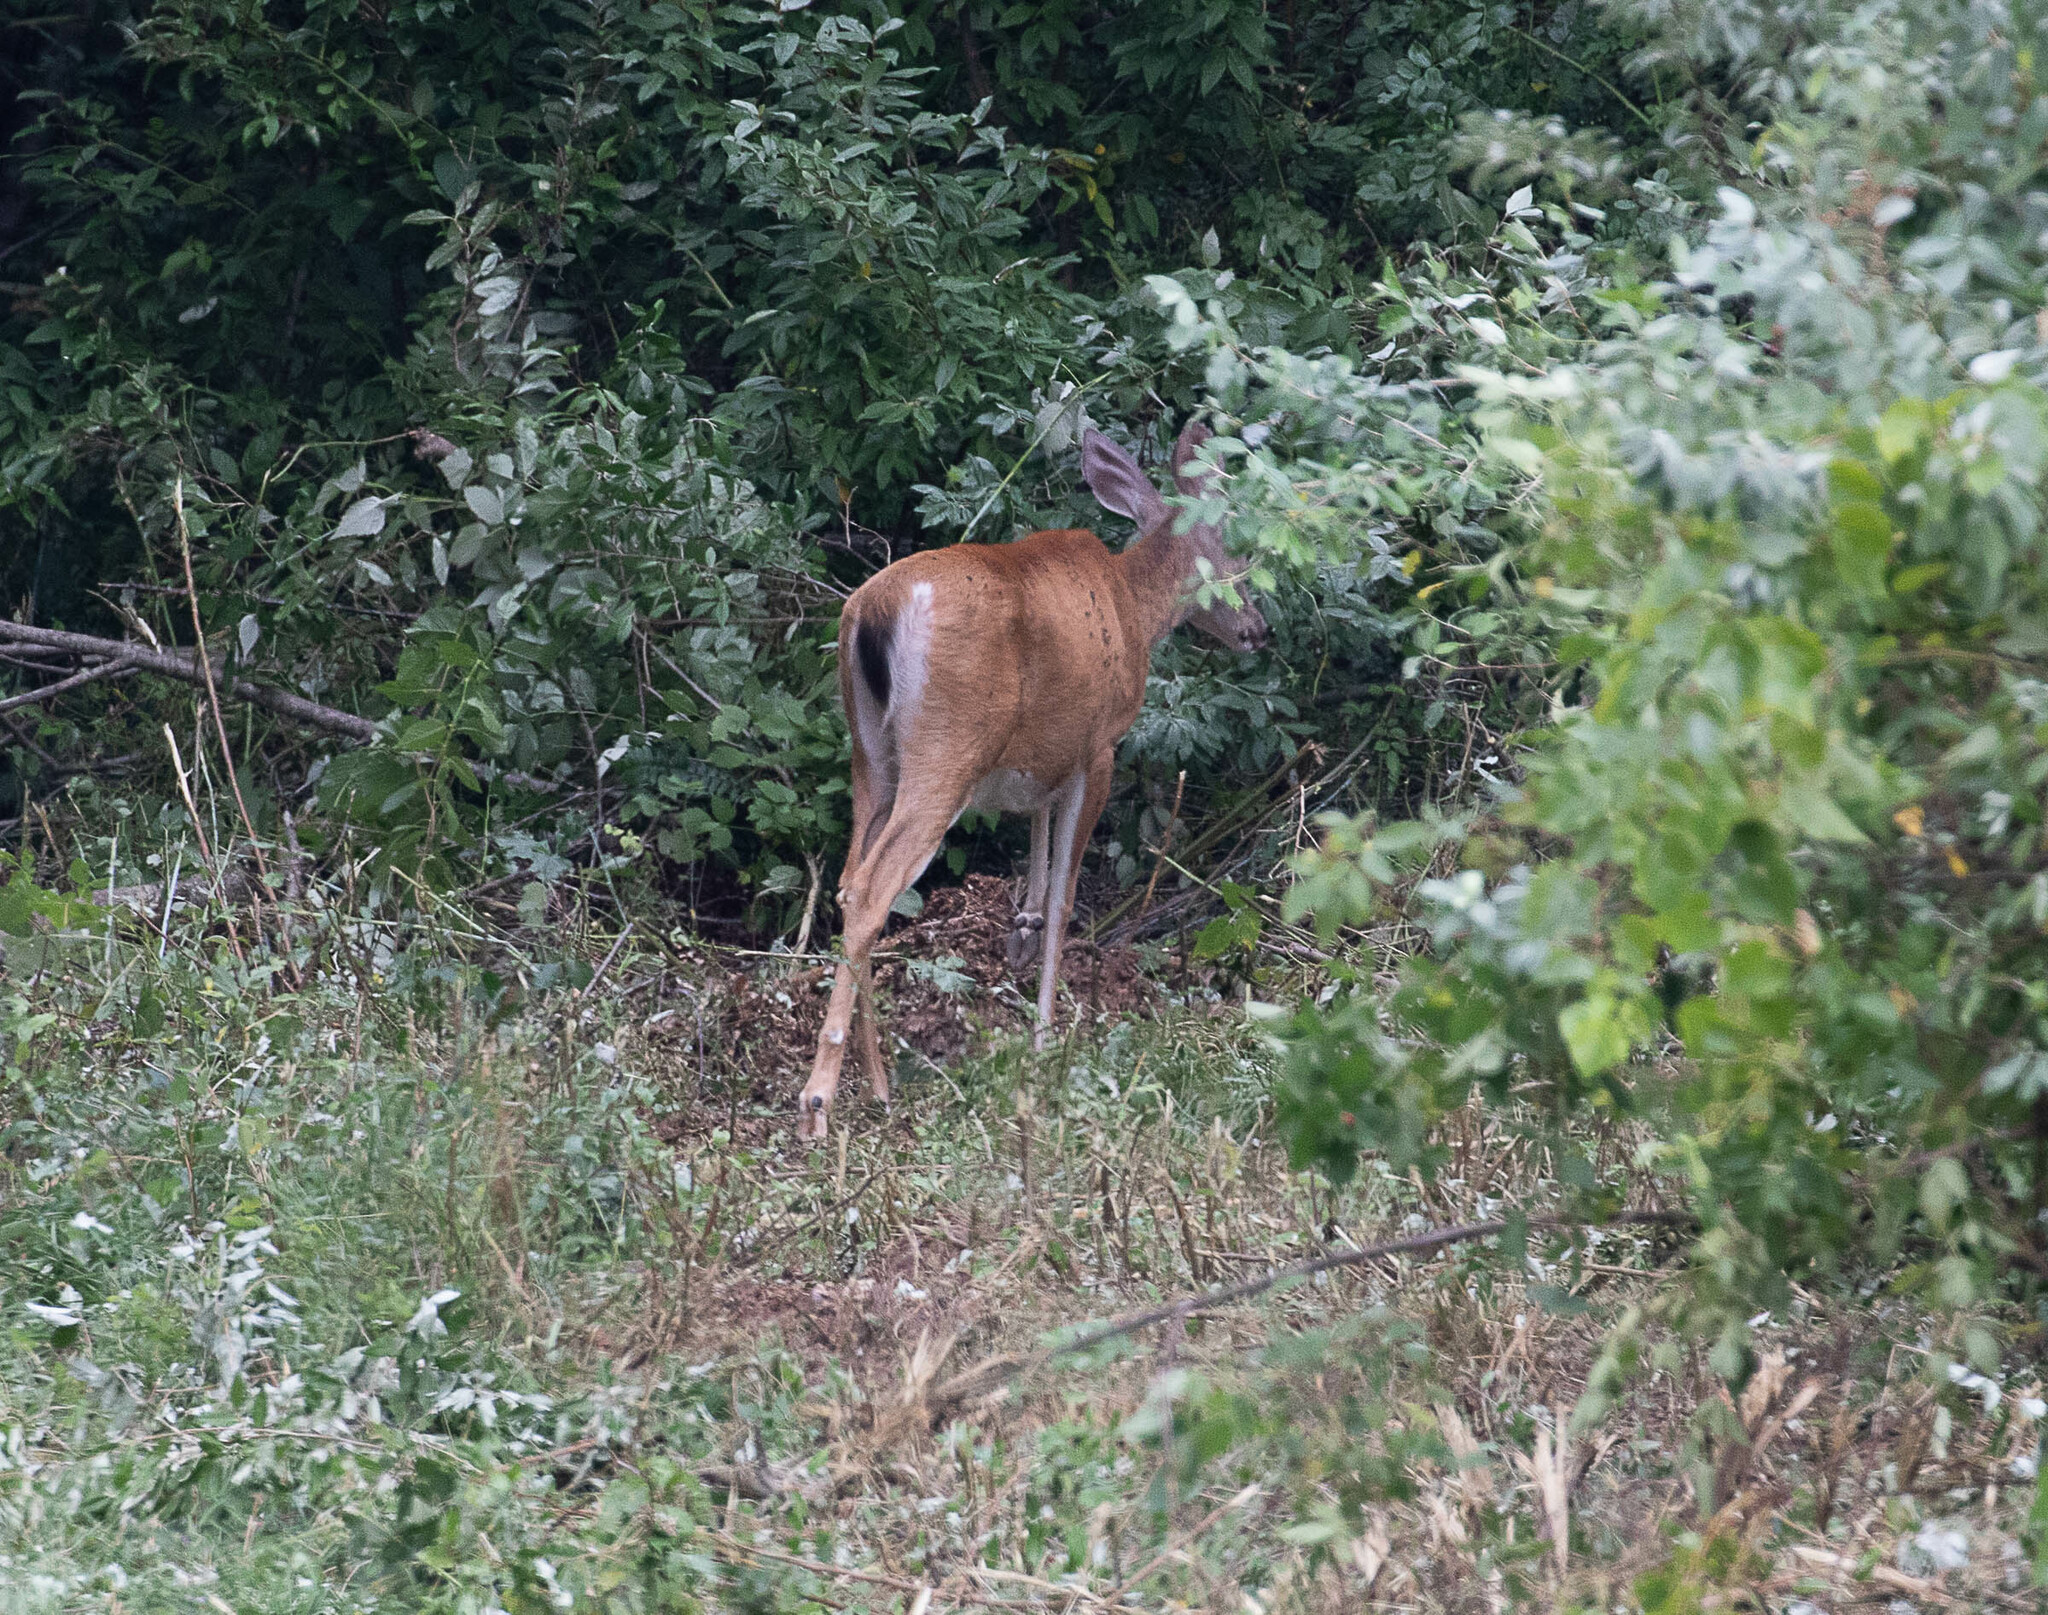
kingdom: Animalia
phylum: Chordata
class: Mammalia
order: Artiodactyla
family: Cervidae
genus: Odocoileus
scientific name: Odocoileus virginianus
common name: White-tailed deer
